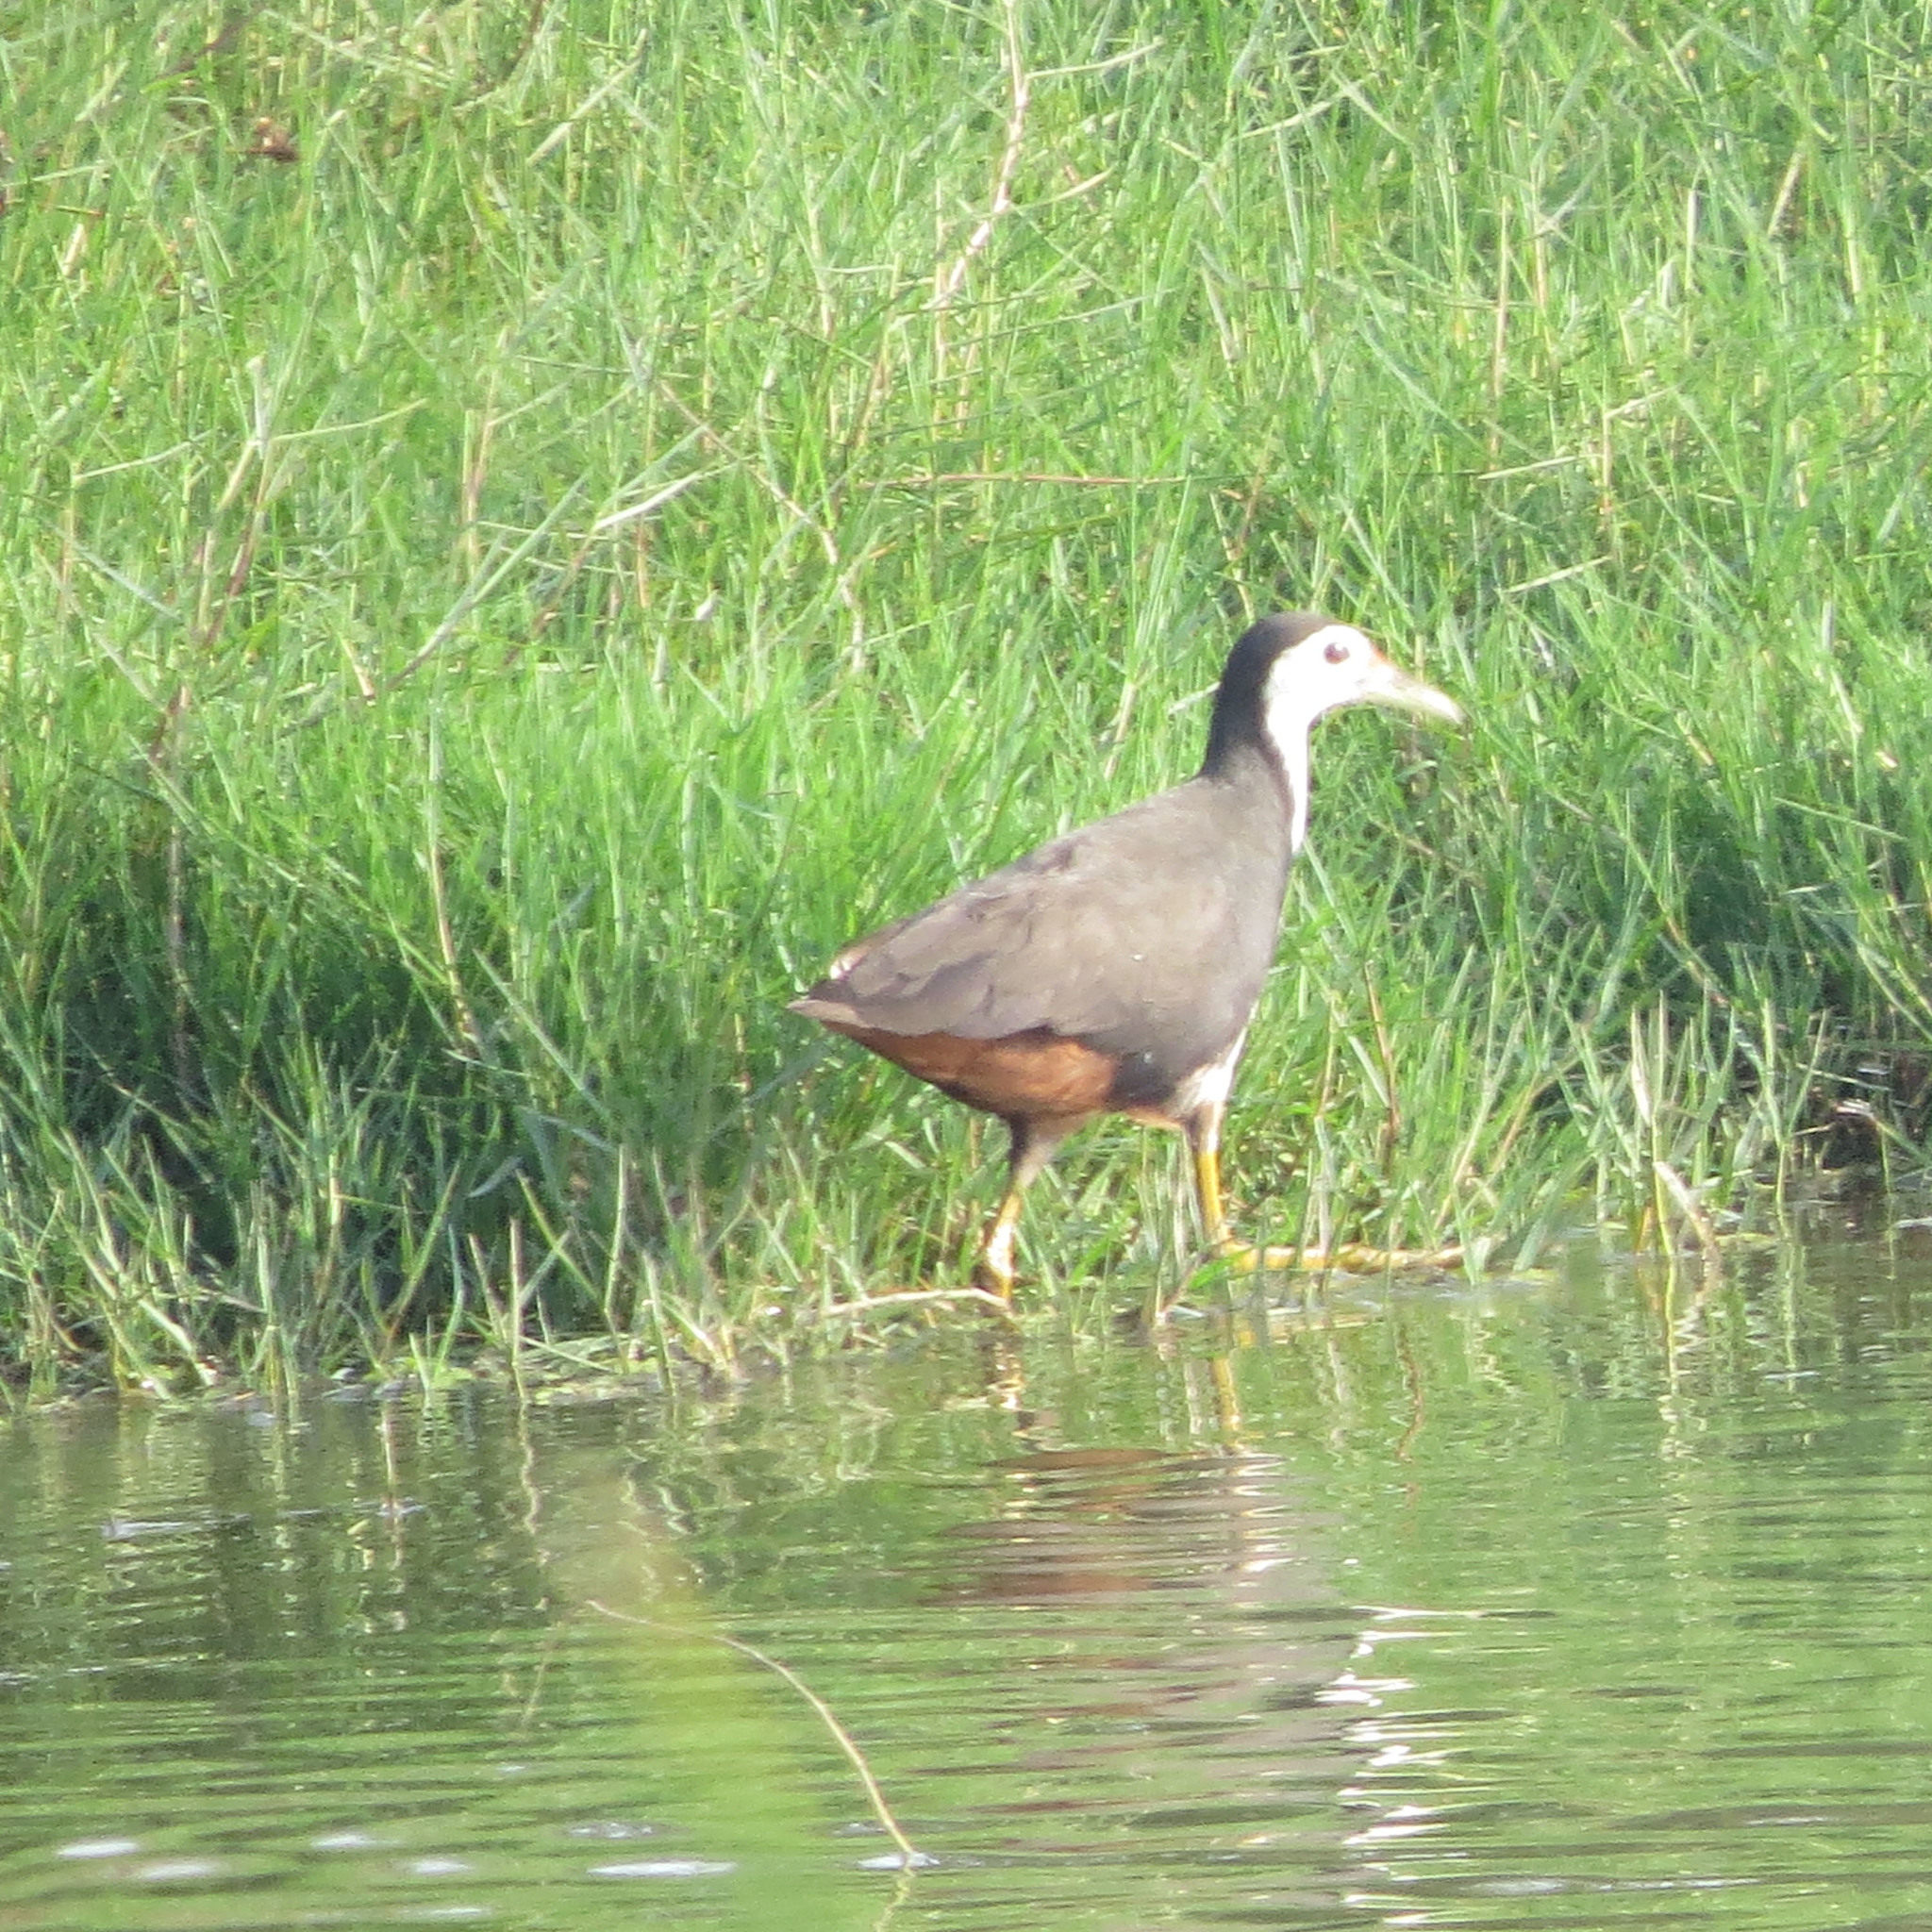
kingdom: Animalia
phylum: Chordata
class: Aves
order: Gruiformes
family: Rallidae
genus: Amaurornis
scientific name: Amaurornis phoenicurus
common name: White-breasted waterhen
